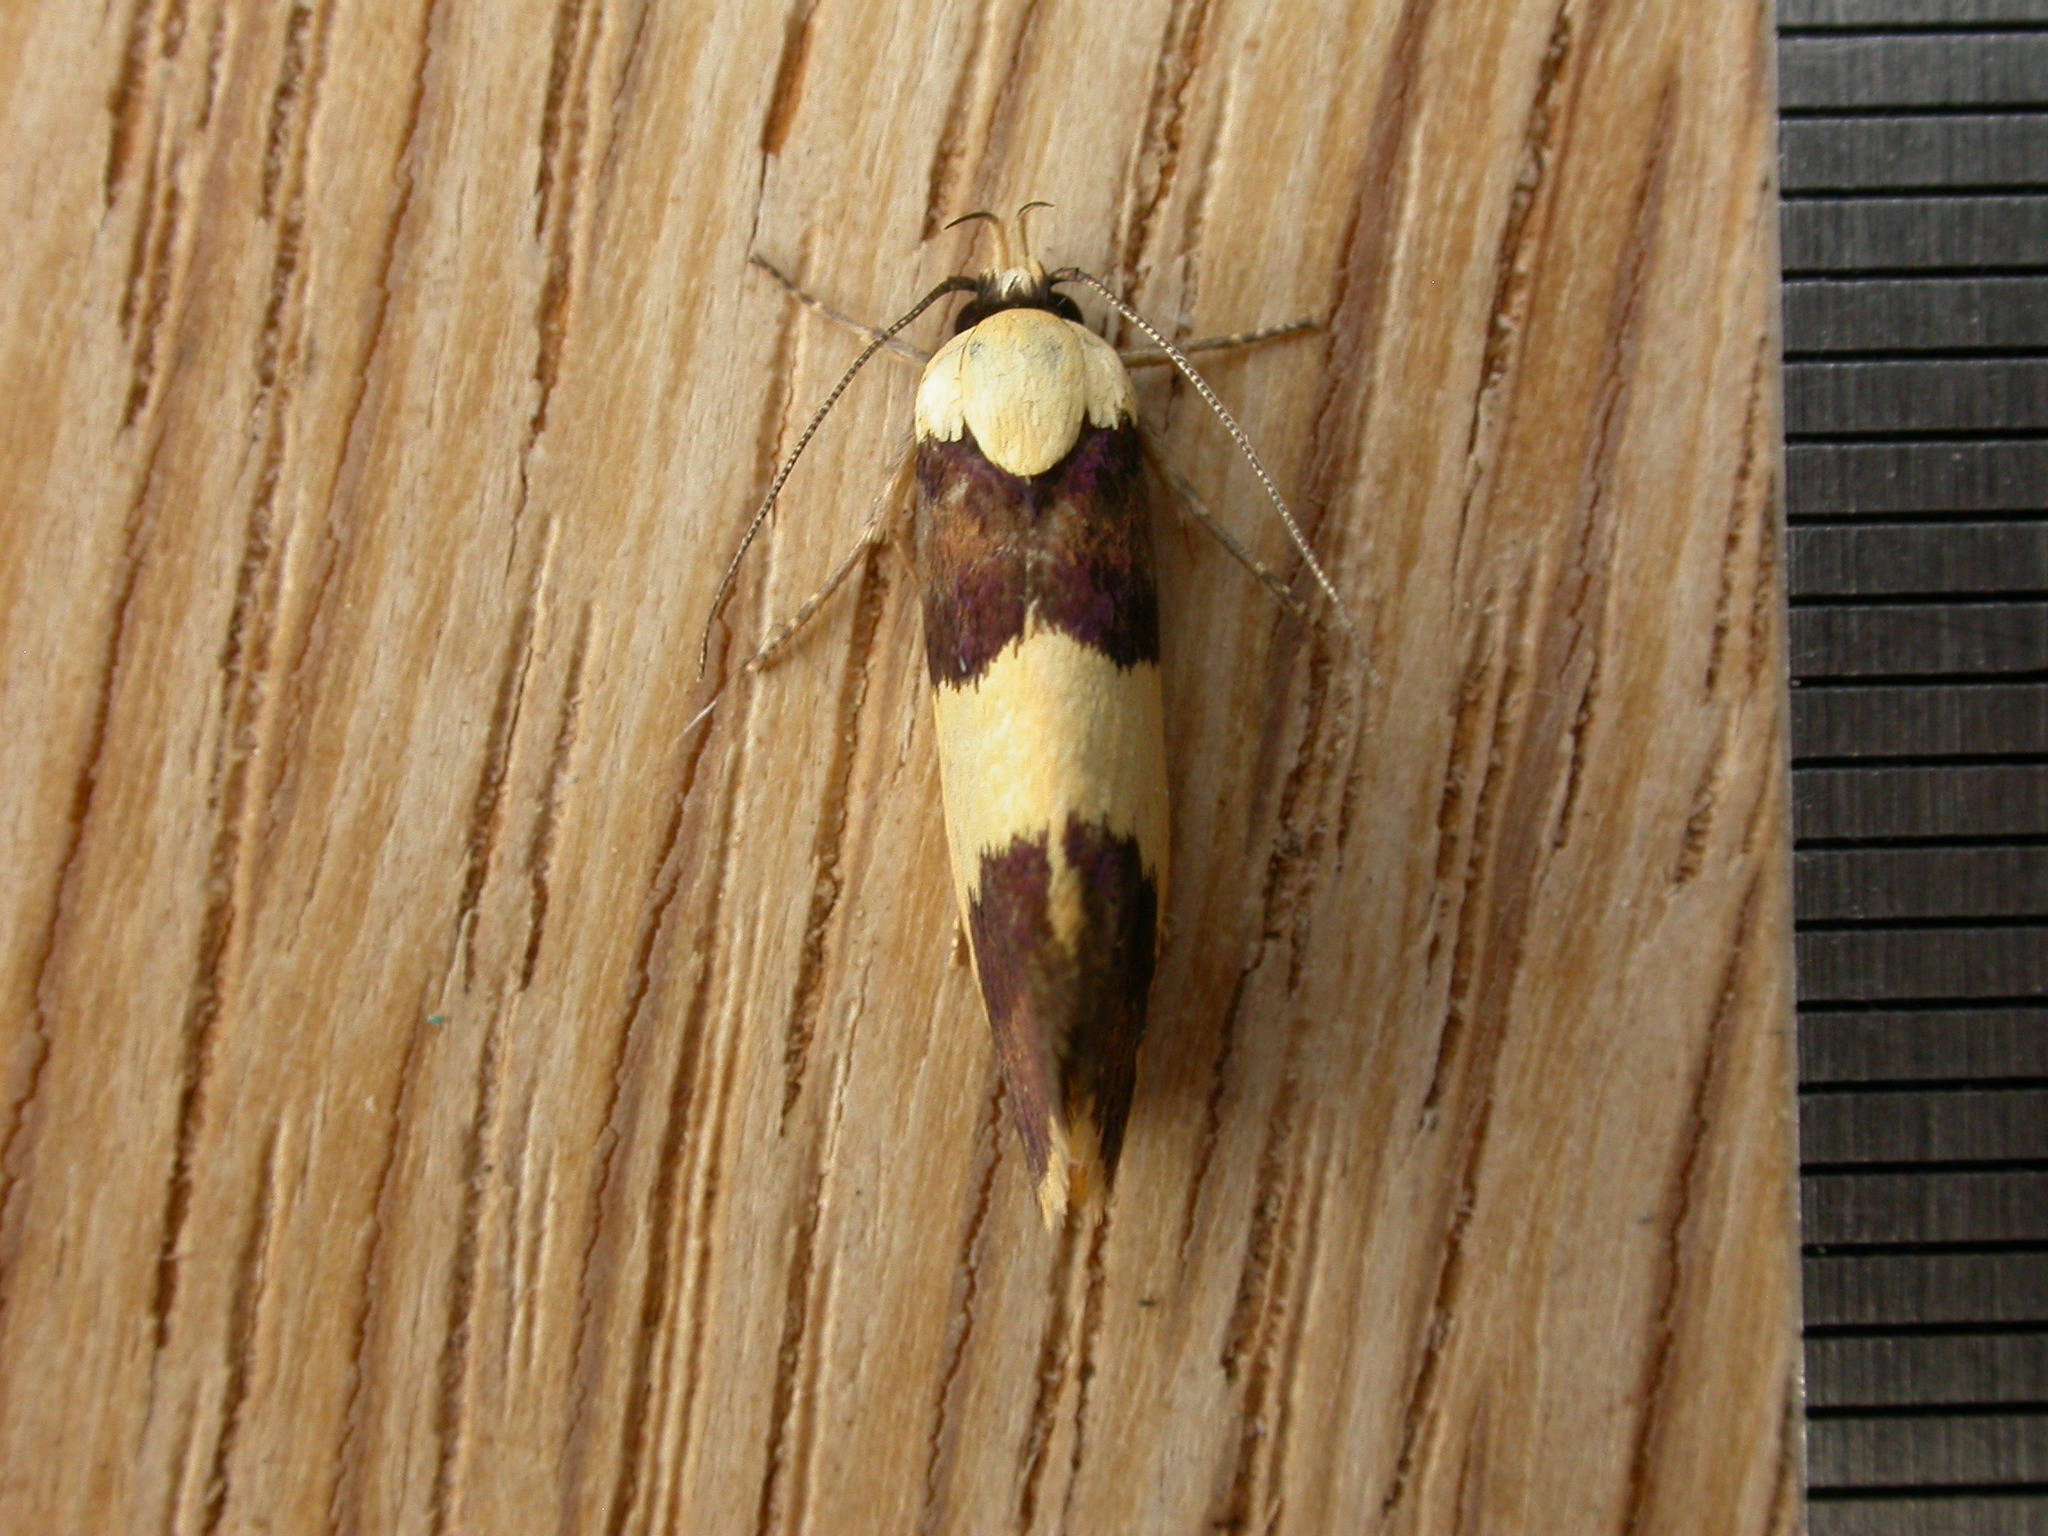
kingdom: Animalia
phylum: Arthropoda
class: Insecta
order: Lepidoptera
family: Xyloryctidae
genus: Telecrates
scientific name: Telecrates laetiorella
